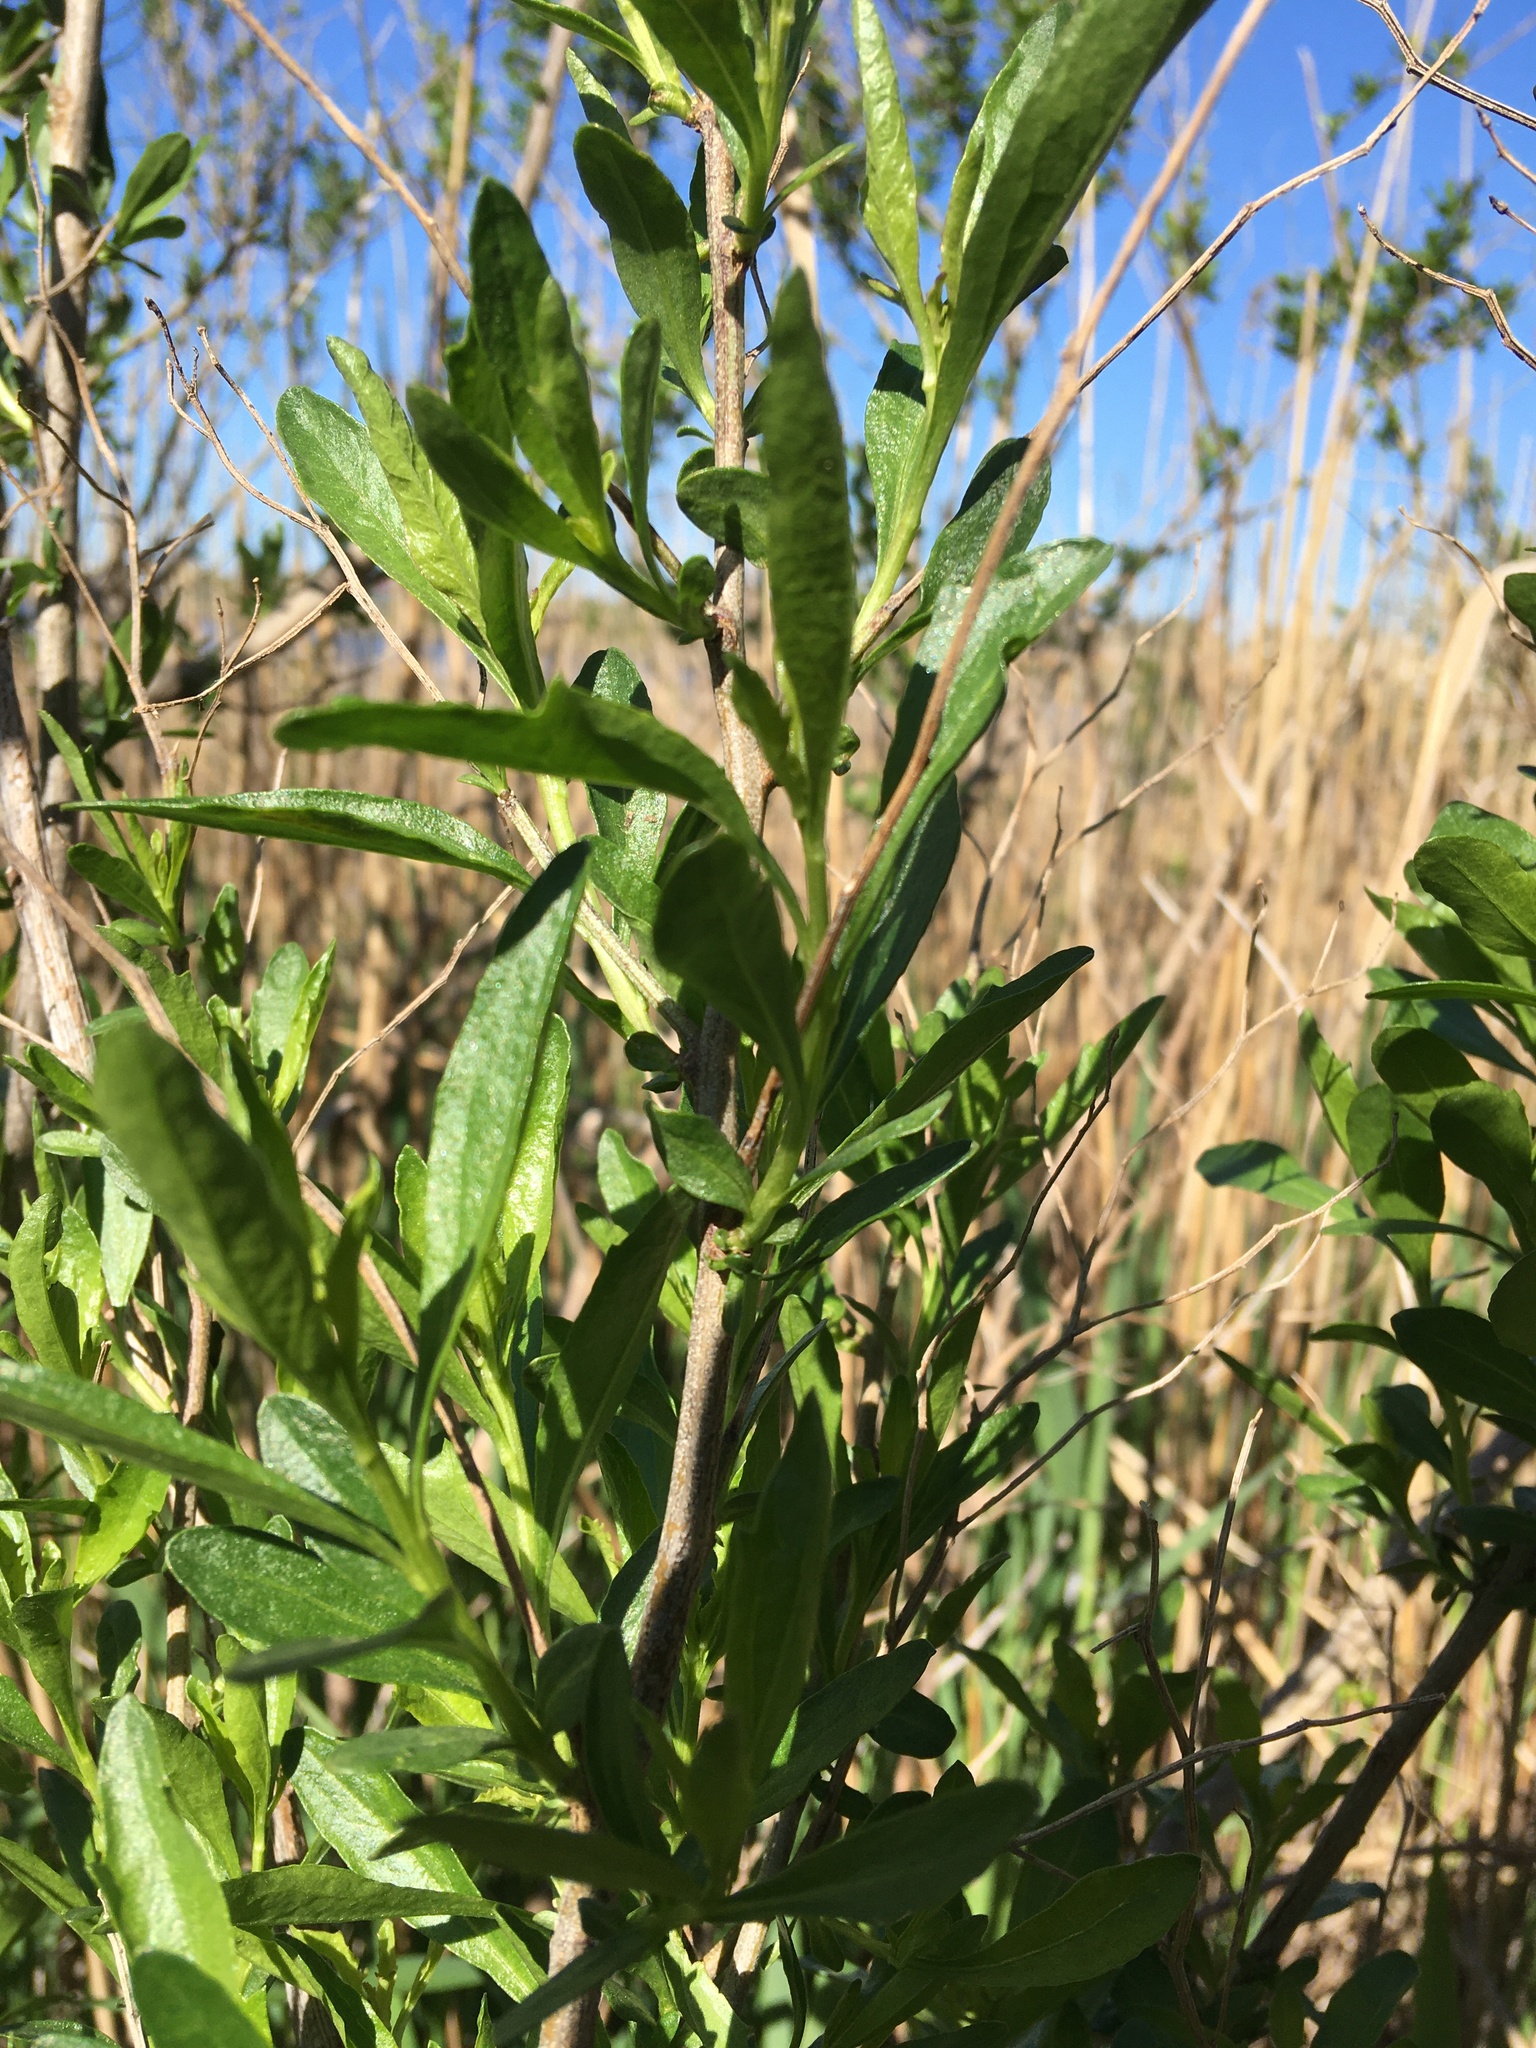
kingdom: Plantae
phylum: Tracheophyta
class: Magnoliopsida
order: Asterales
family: Asteraceae
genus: Baccharis
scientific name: Baccharis halimifolia
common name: Eastern baccharis
